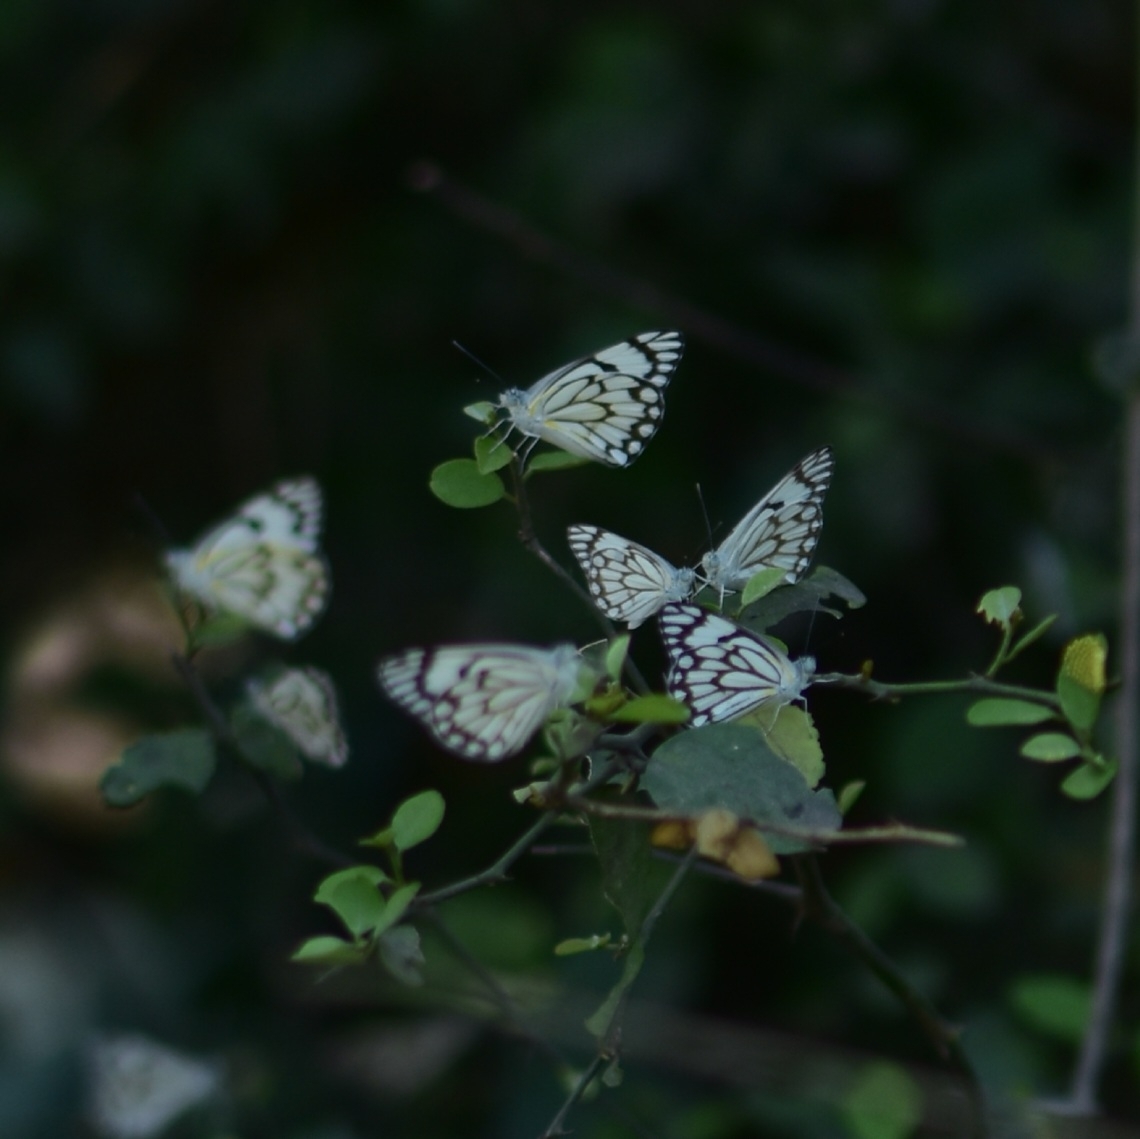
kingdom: Animalia
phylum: Arthropoda
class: Insecta
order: Lepidoptera
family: Pieridae
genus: Belenois
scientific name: Belenois aurota
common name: Brown-veined white
